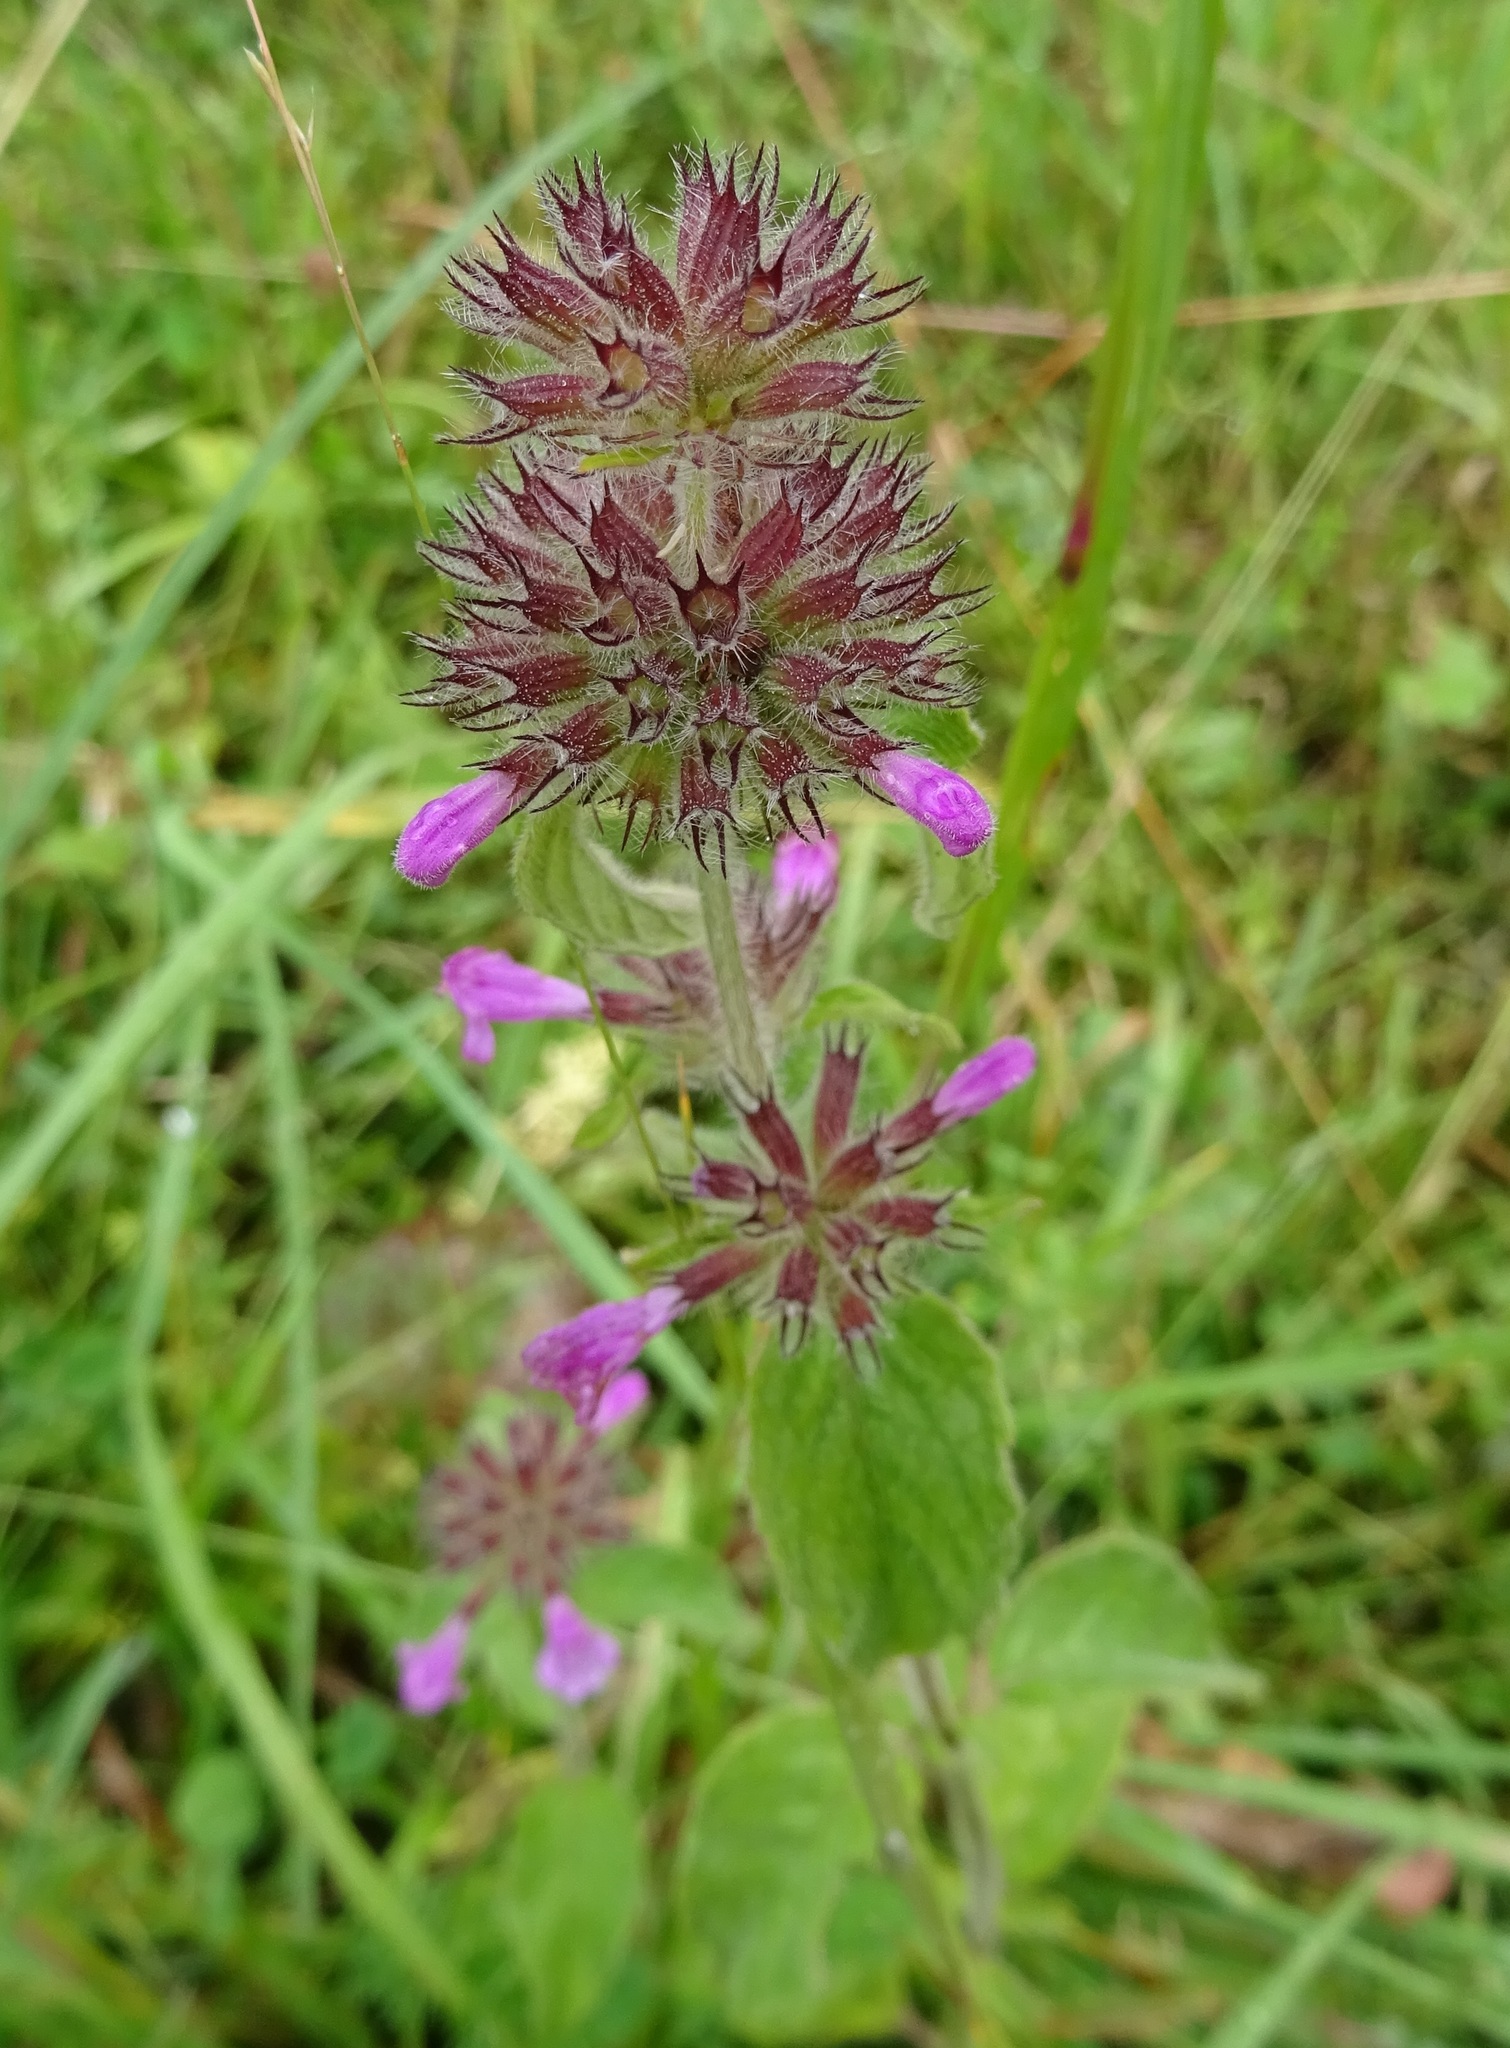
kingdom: Plantae
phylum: Tracheophyta
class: Magnoliopsida
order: Lamiales
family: Lamiaceae
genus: Clinopodium
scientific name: Clinopodium vulgare
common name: Wild basil
